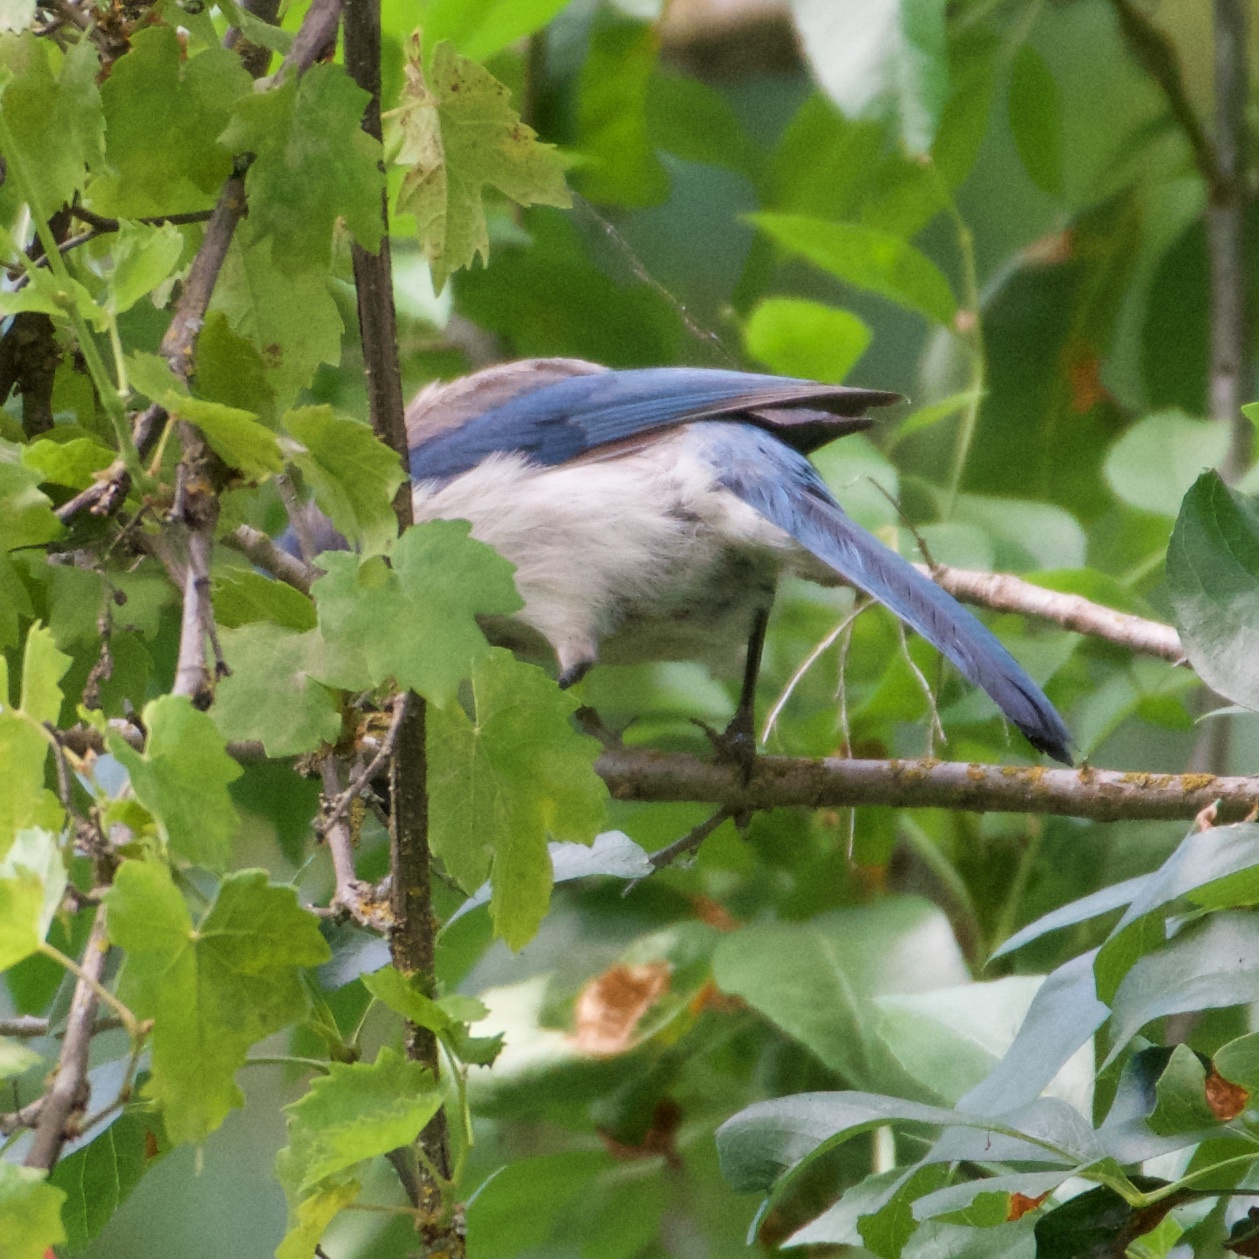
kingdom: Animalia
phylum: Chordata
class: Aves
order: Passeriformes
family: Corvidae
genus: Aphelocoma
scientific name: Aphelocoma californica
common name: California scrub-jay
